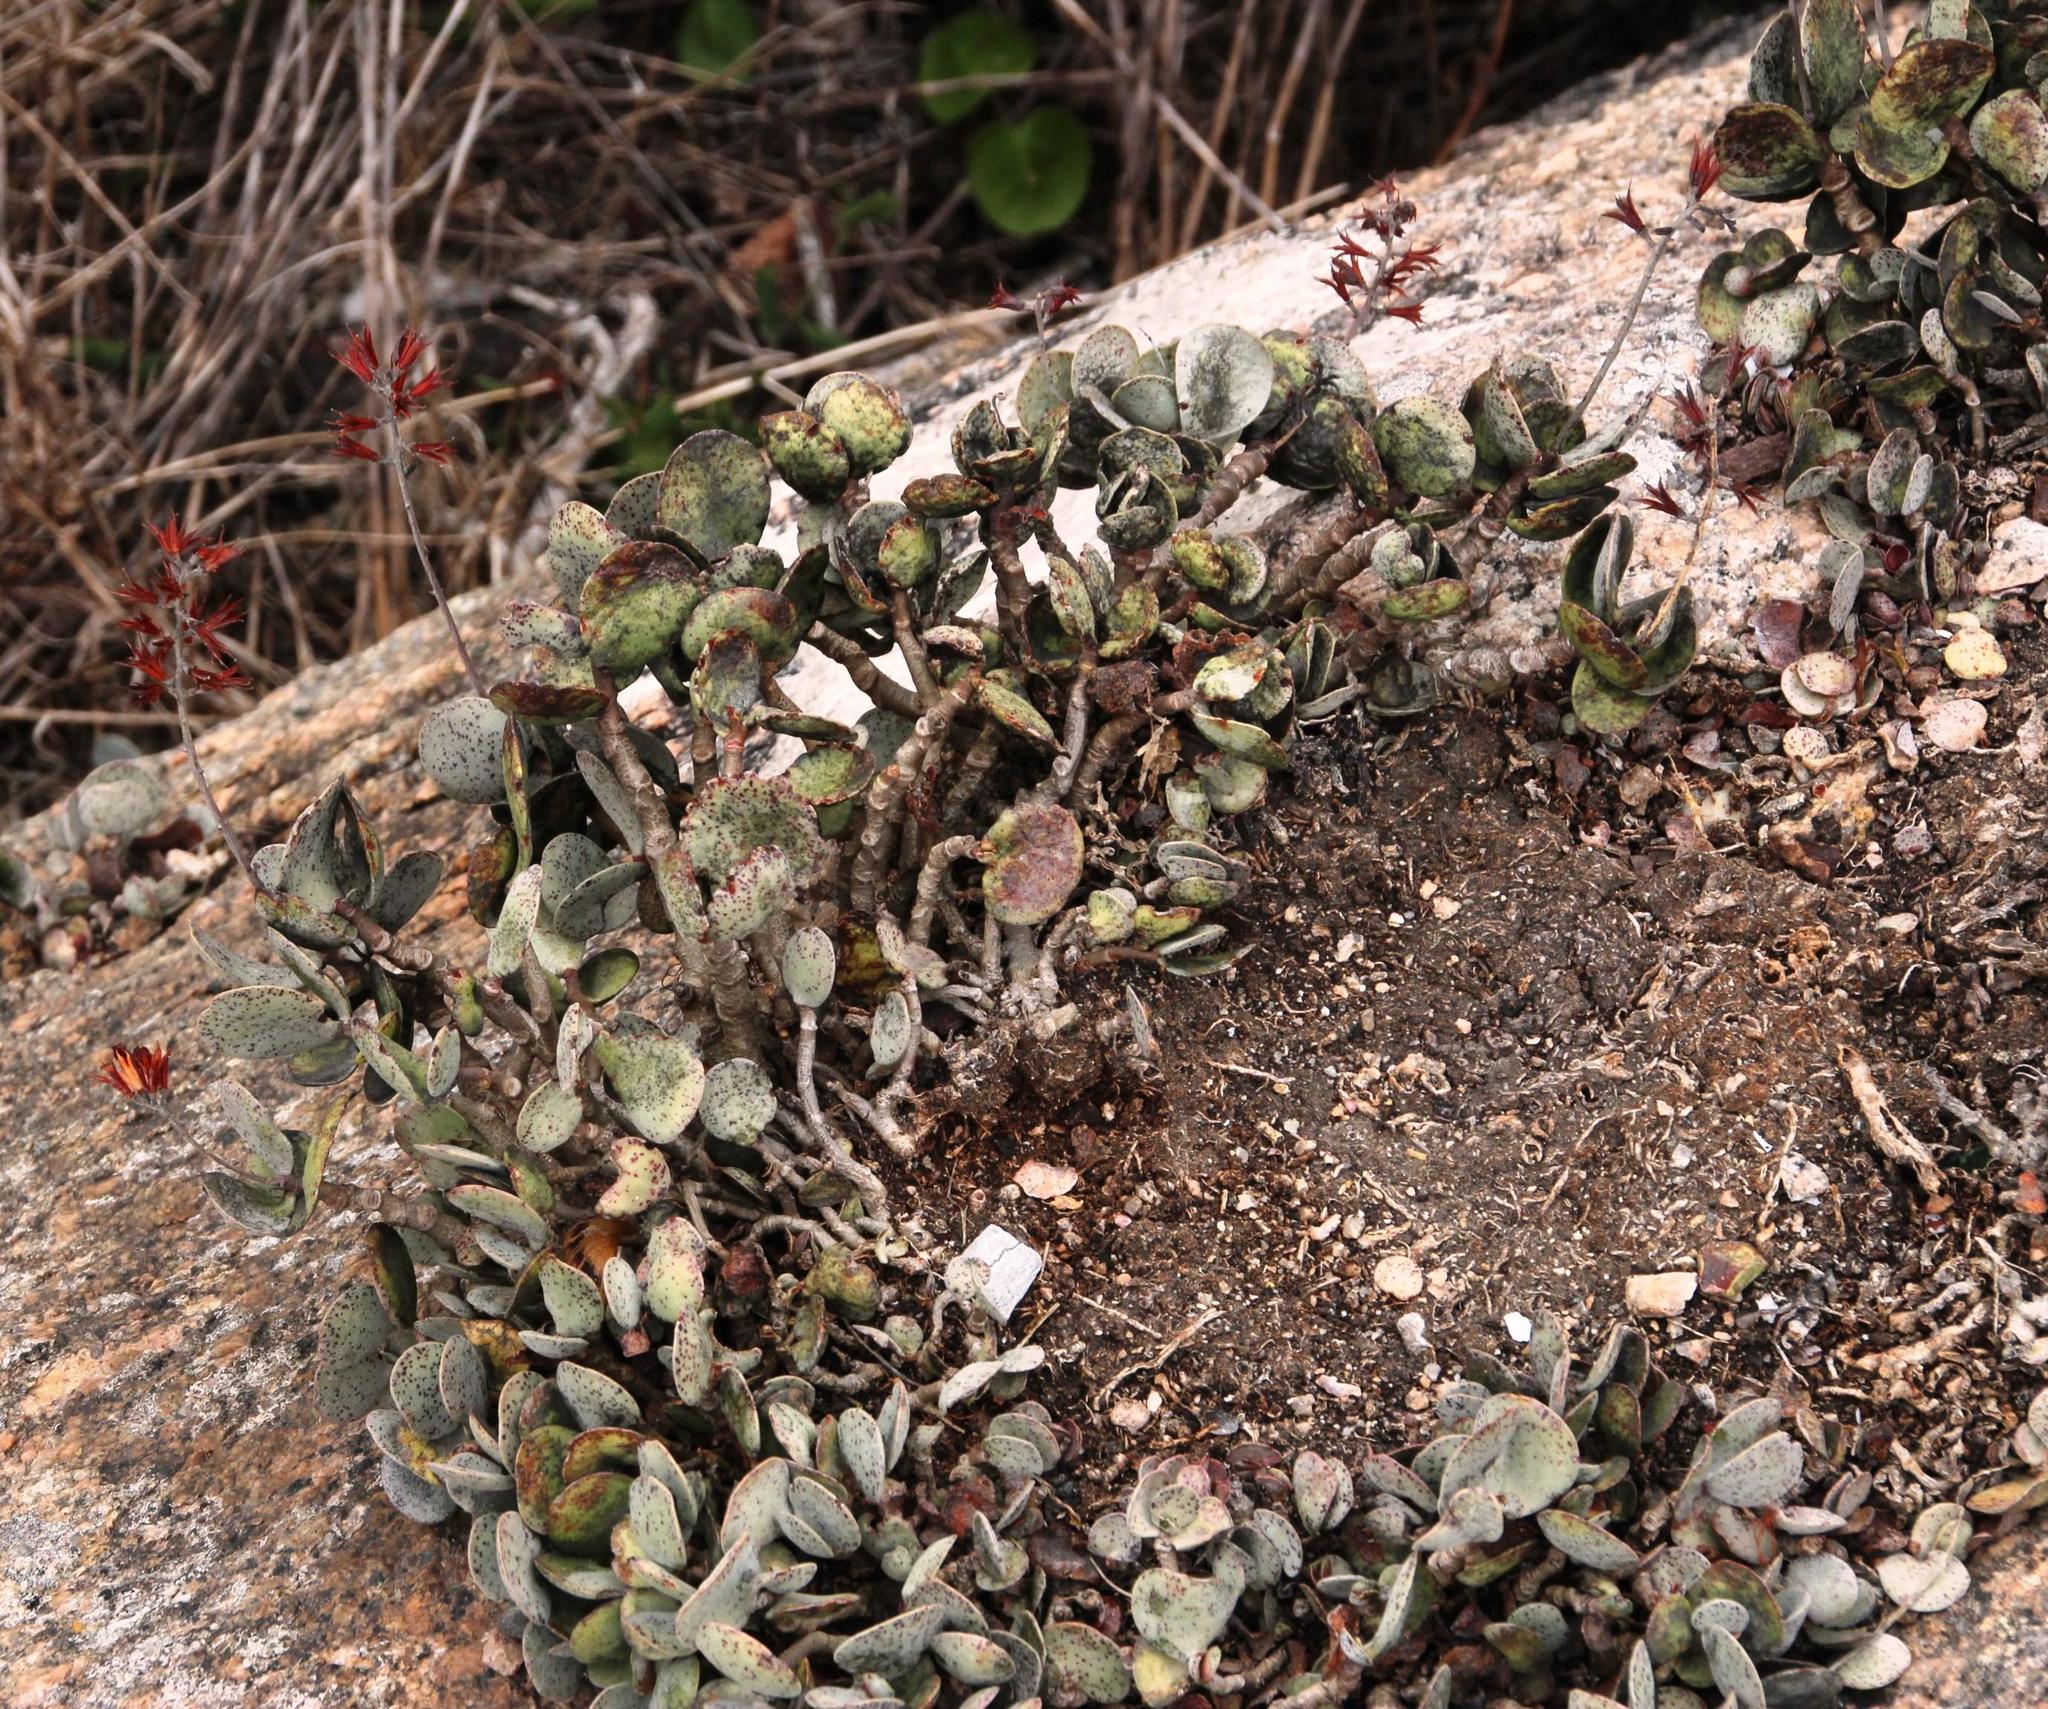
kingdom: Plantae
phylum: Tracheophyta
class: Magnoliopsida
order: Saxifragales
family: Crassulaceae
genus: Adromischus
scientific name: Adromischus hemisphaericus
